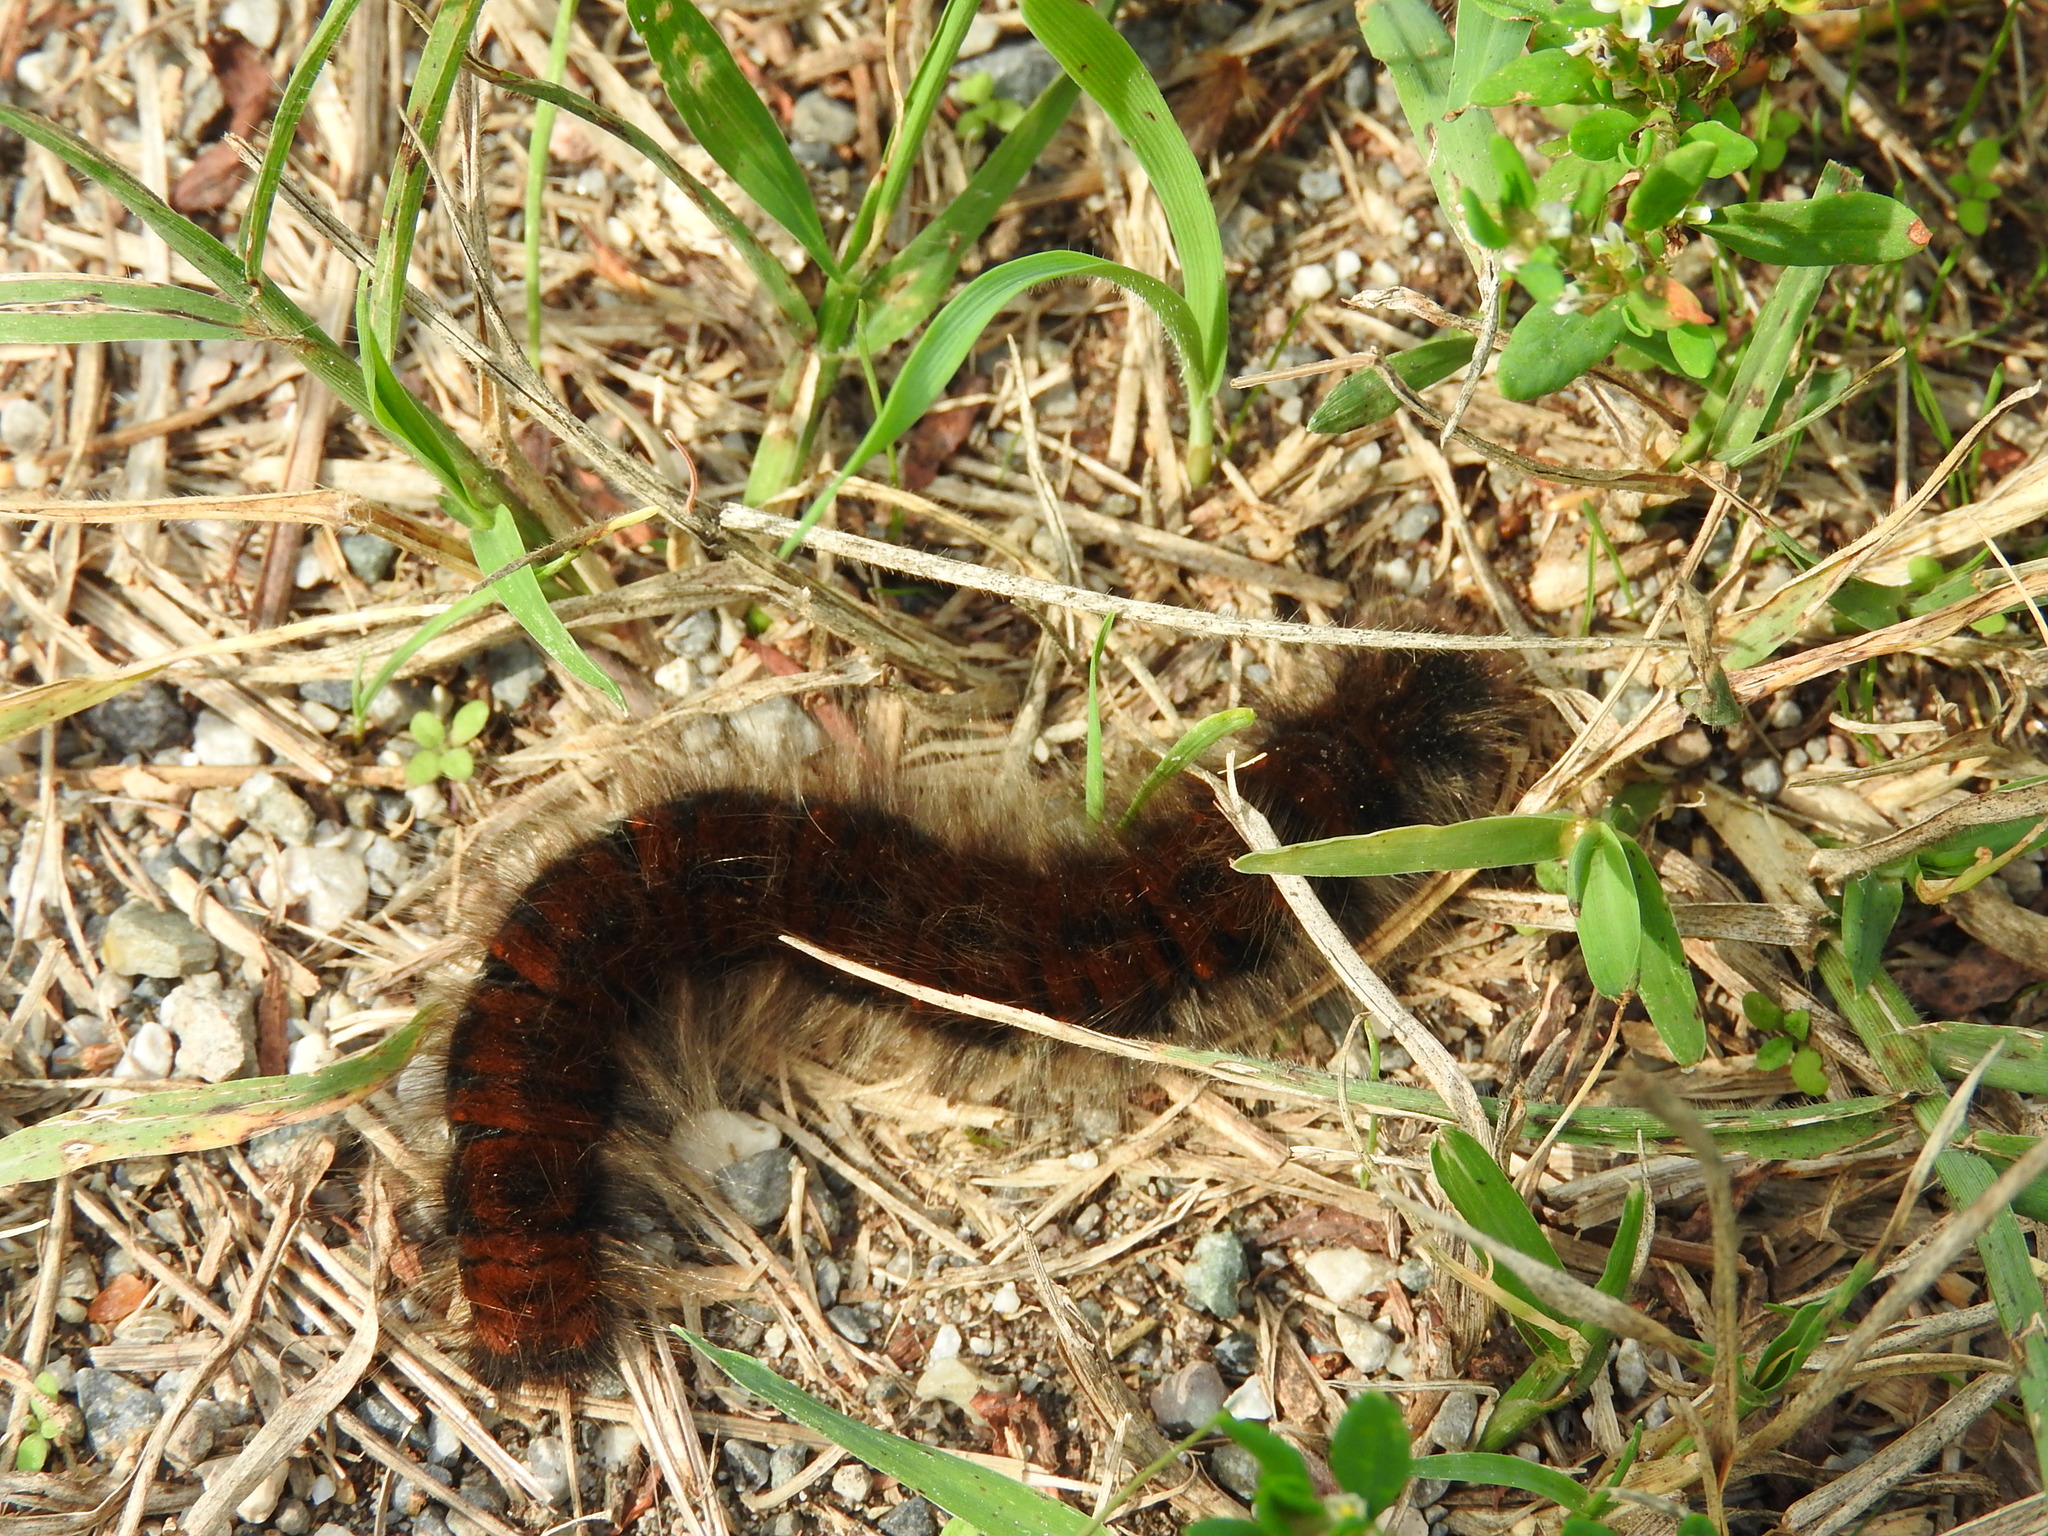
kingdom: Animalia
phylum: Arthropoda
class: Insecta
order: Lepidoptera
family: Lasiocampidae
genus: Macrothylacia
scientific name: Macrothylacia rubi
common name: Fox moth
